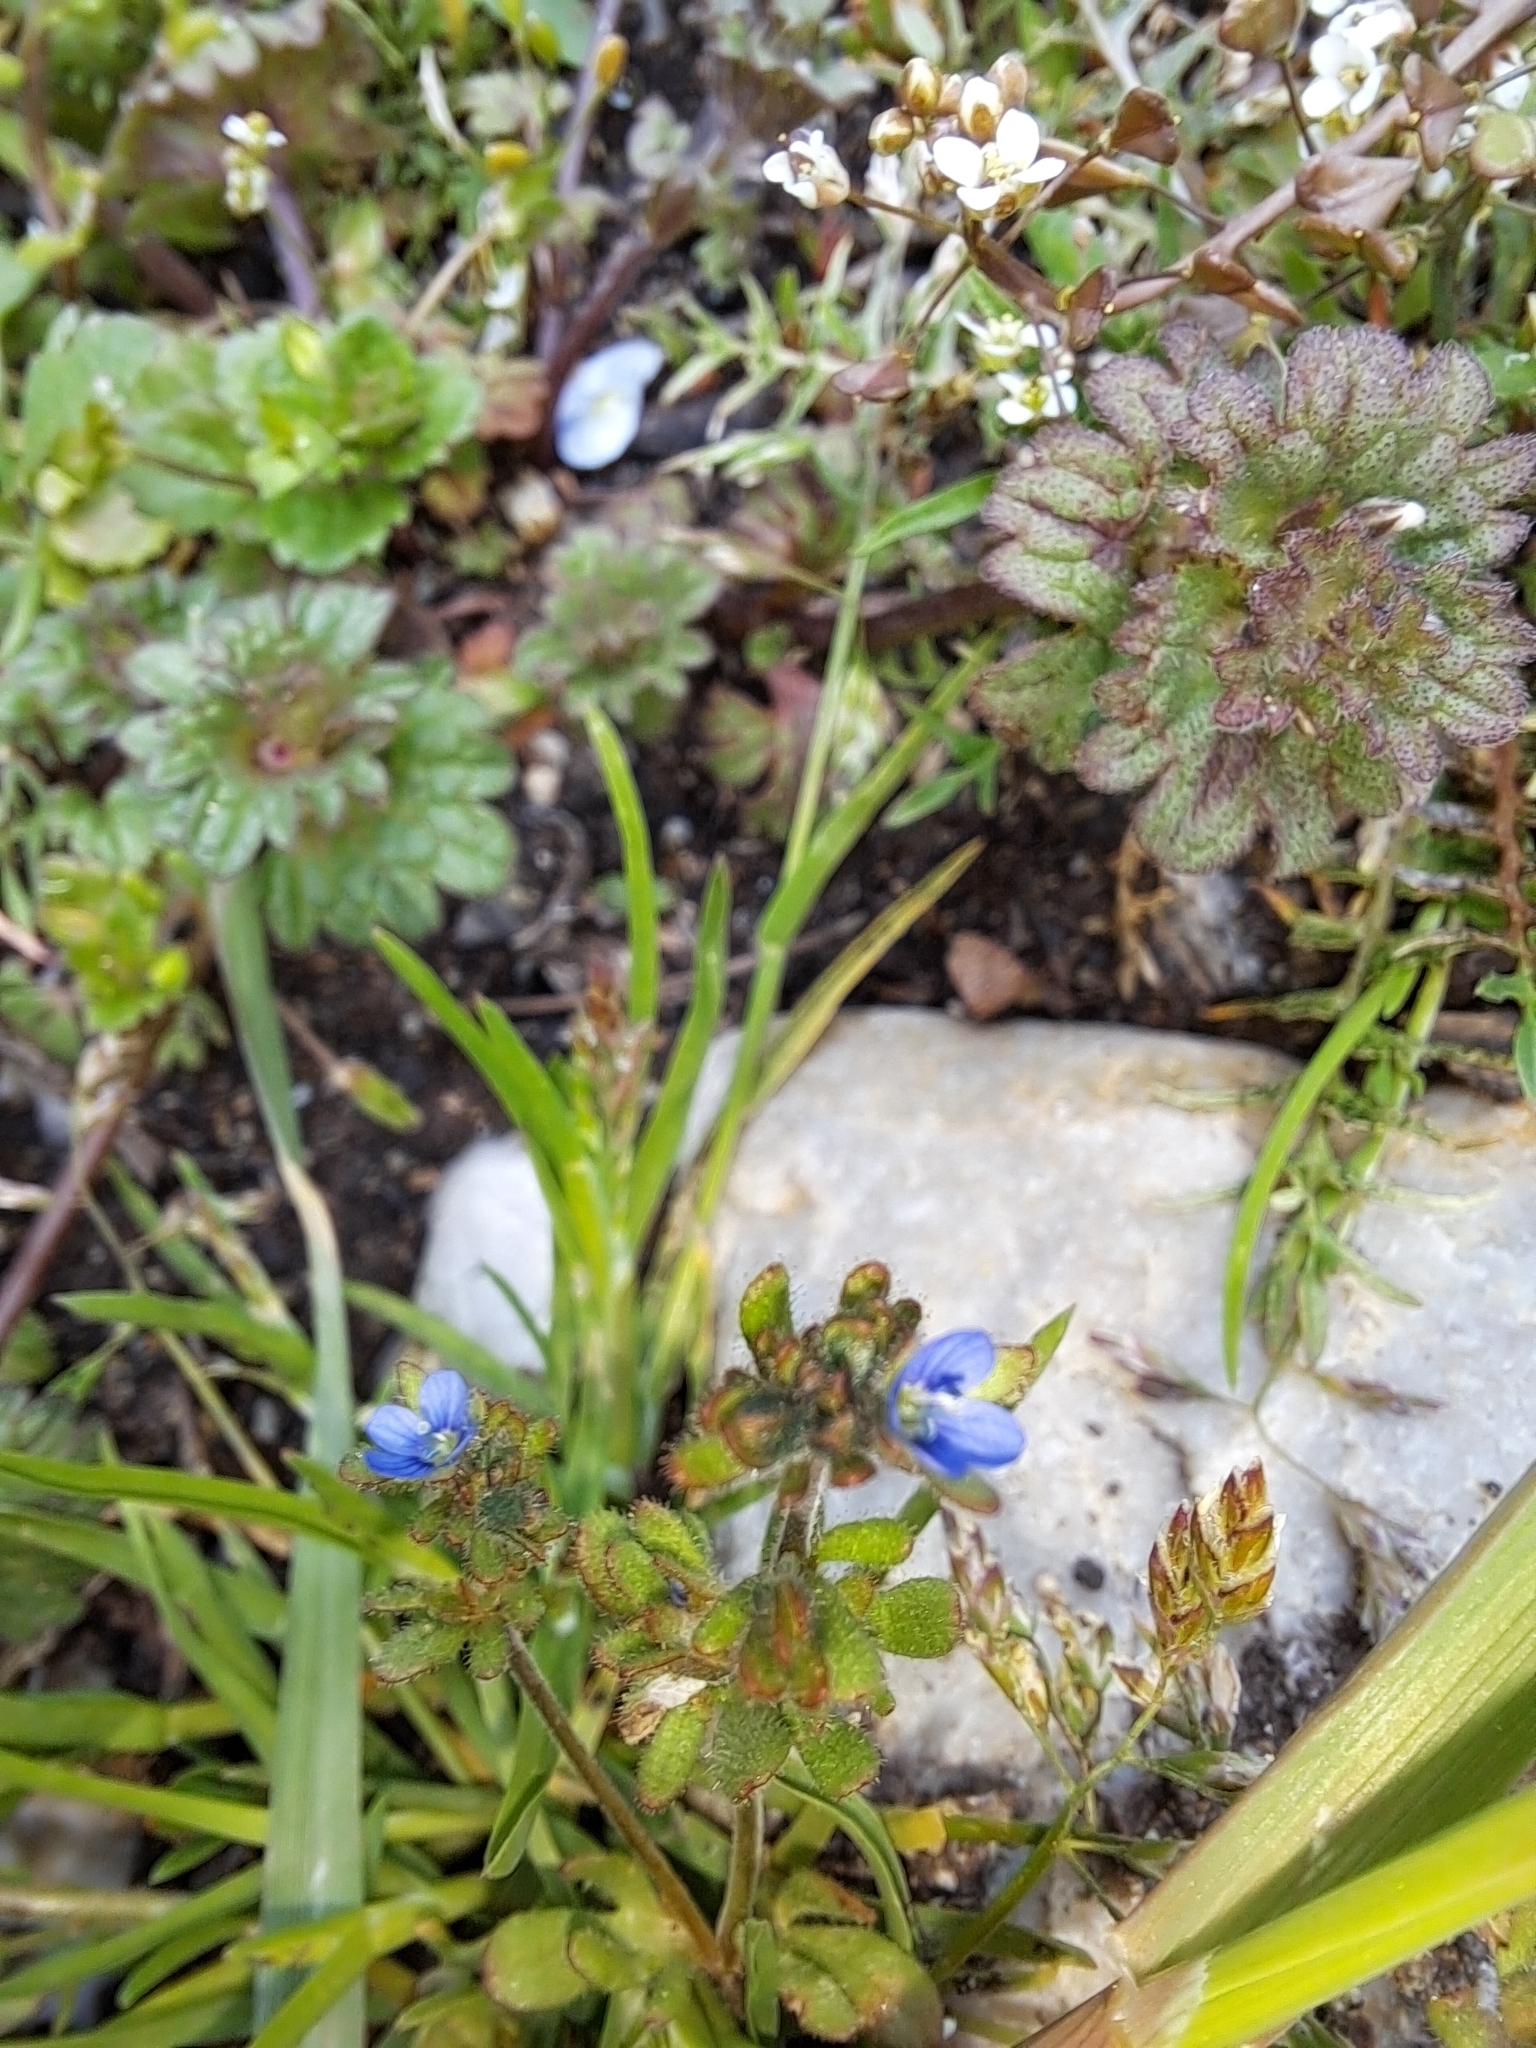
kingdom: Plantae
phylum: Tracheophyta
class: Magnoliopsida
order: Lamiales
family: Plantaginaceae
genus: Veronica
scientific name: Veronica triphyllos
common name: Fingered speedwell
